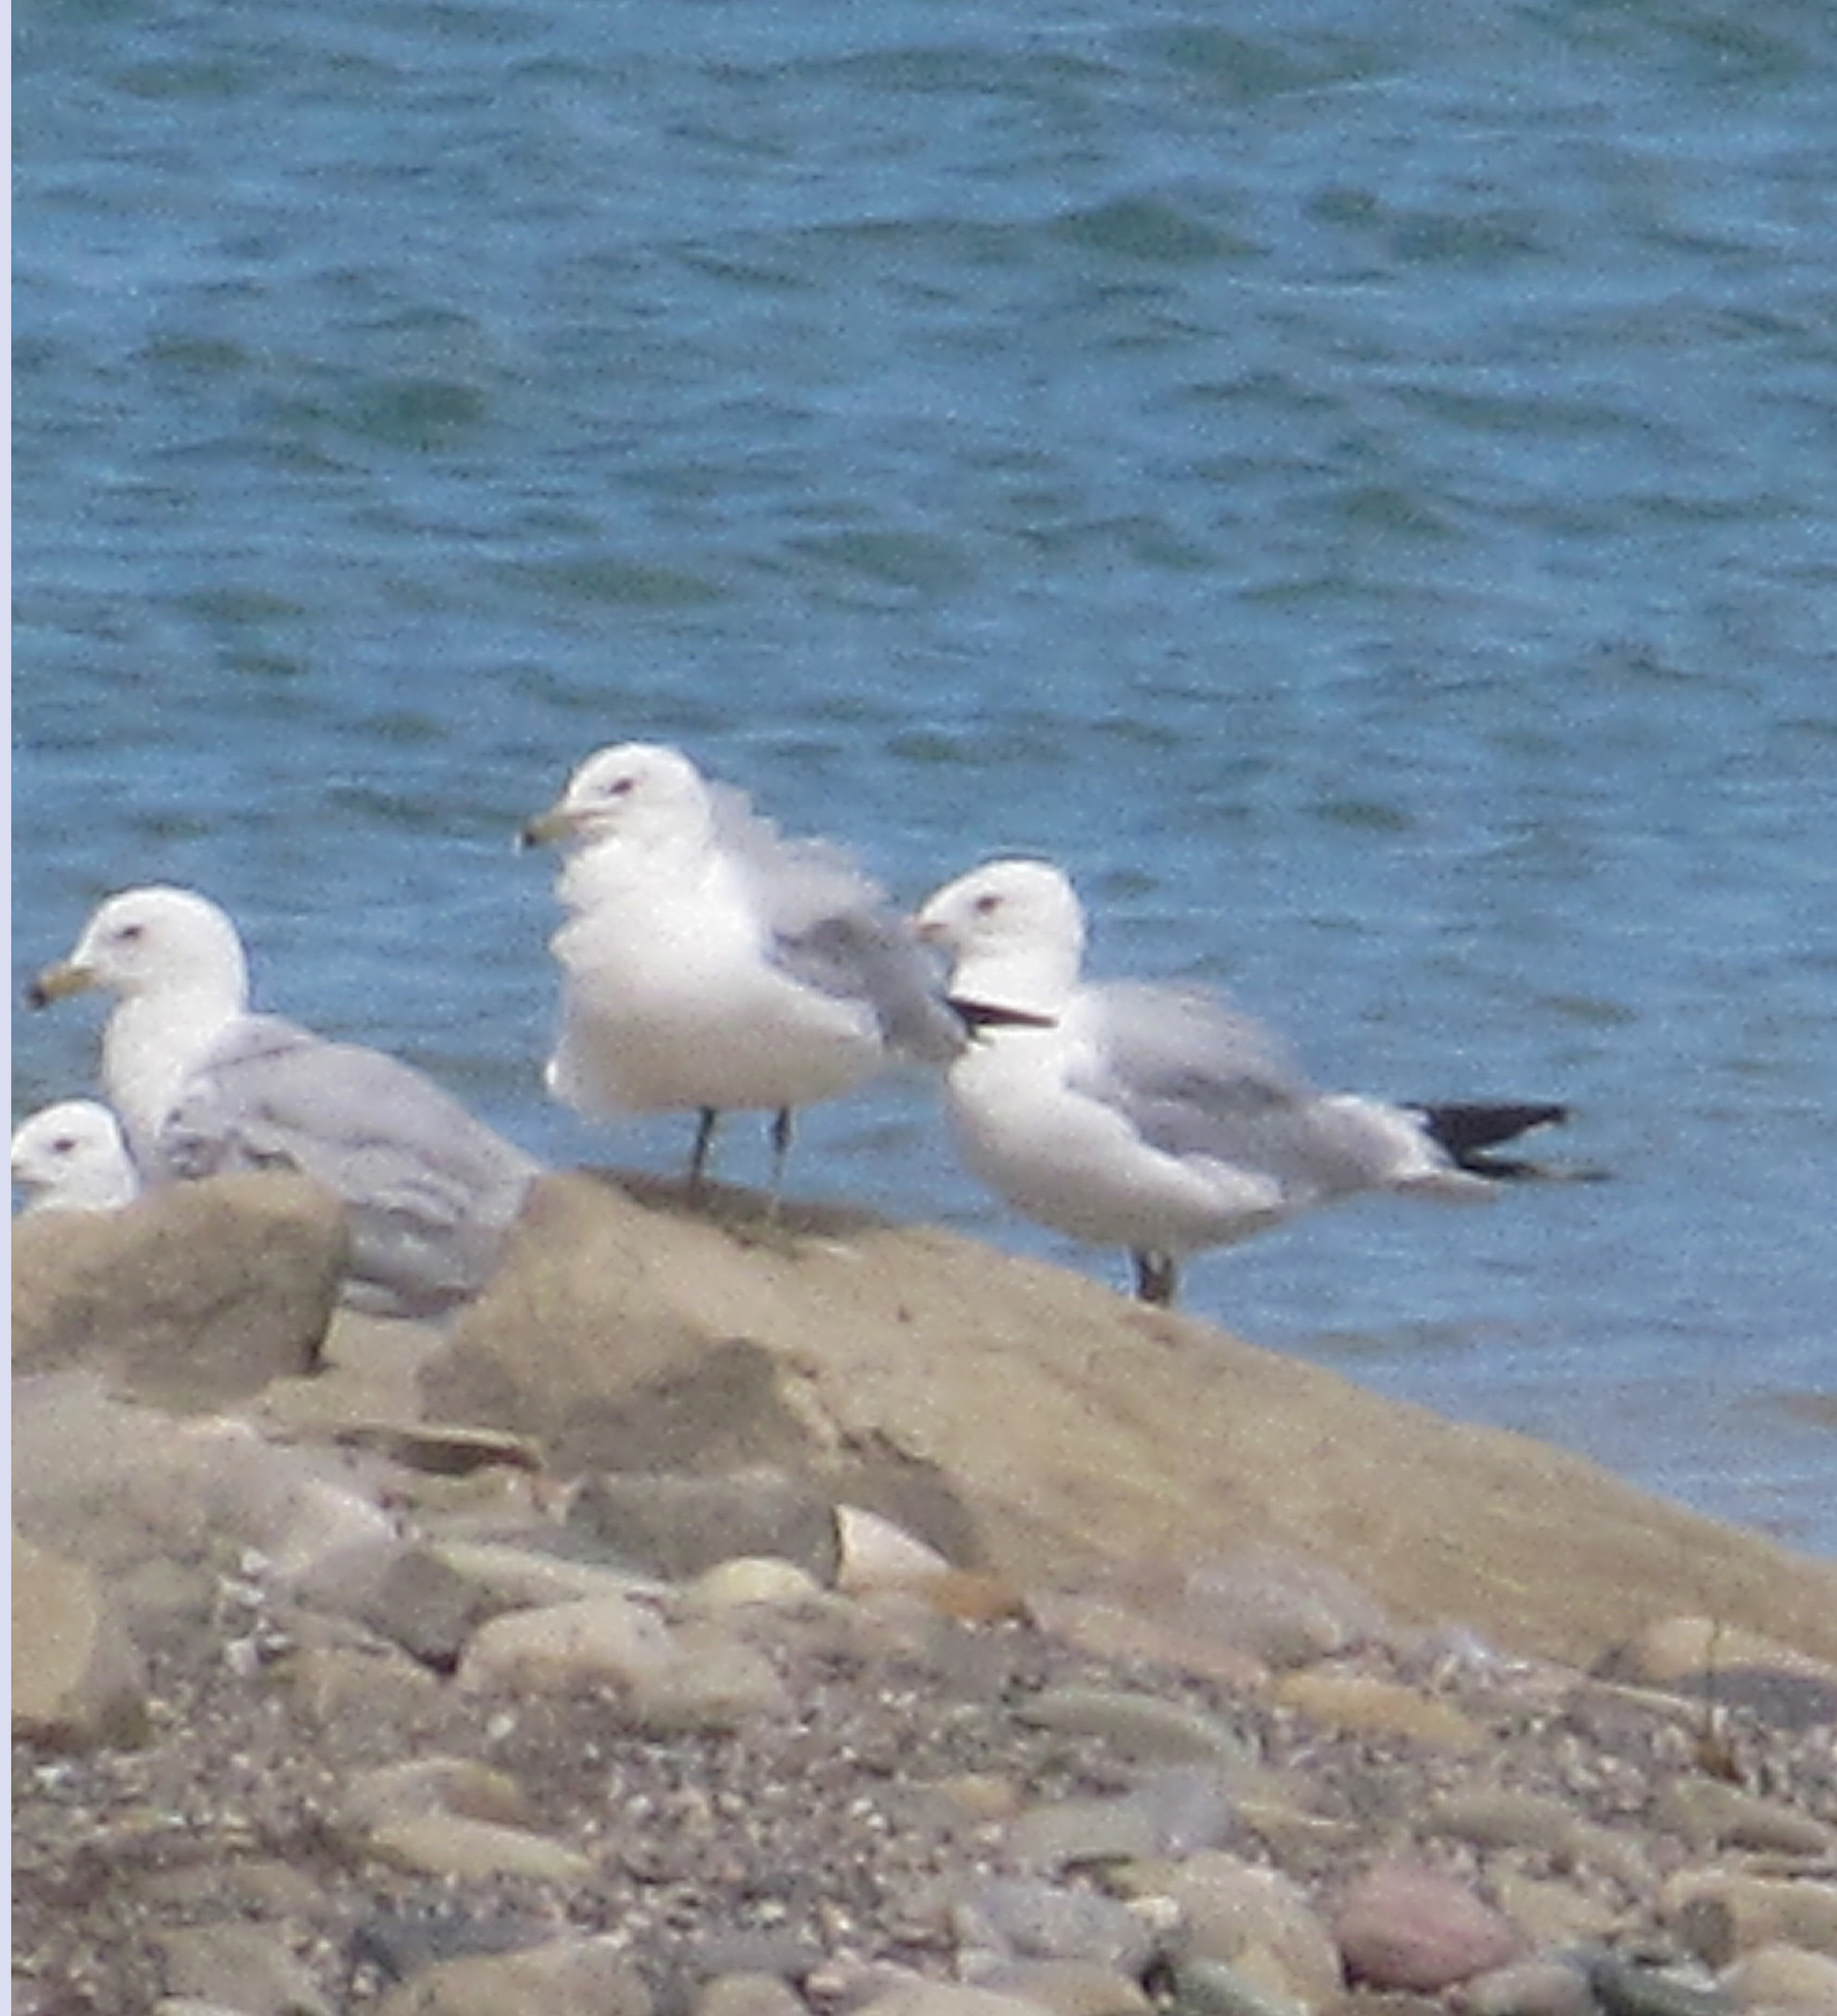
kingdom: Animalia
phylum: Chordata
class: Aves
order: Charadriiformes
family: Laridae
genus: Larus
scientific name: Larus delawarensis
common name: Ring-billed gull
